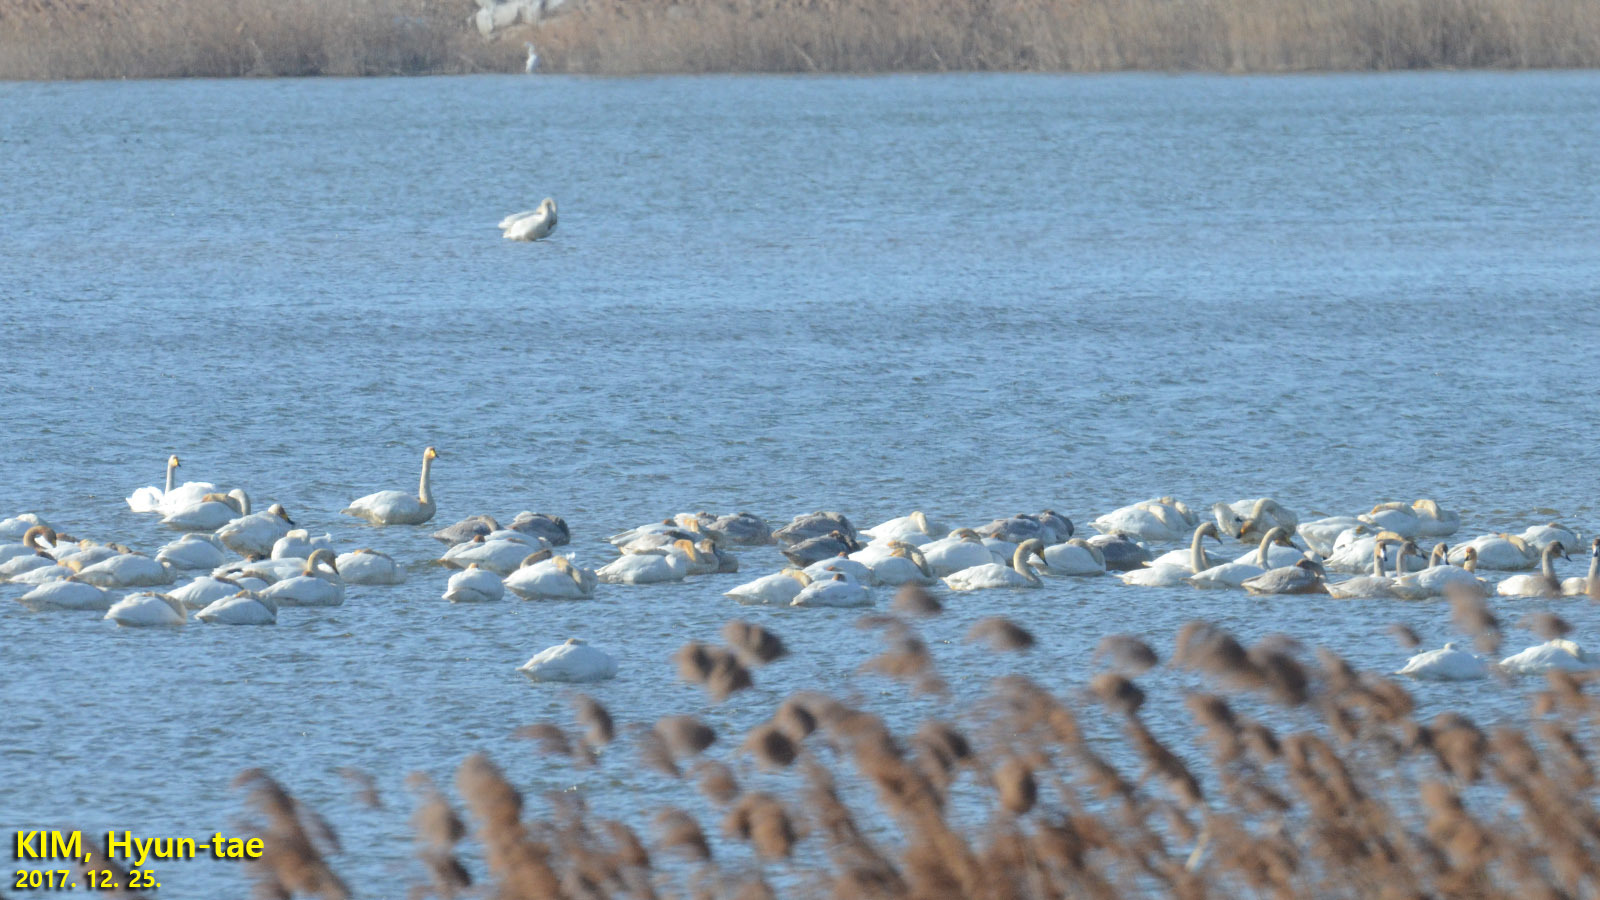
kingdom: Animalia
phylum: Chordata
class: Aves
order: Anseriformes
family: Anatidae
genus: Cygnus
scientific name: Cygnus cygnus
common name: Whooper swan
